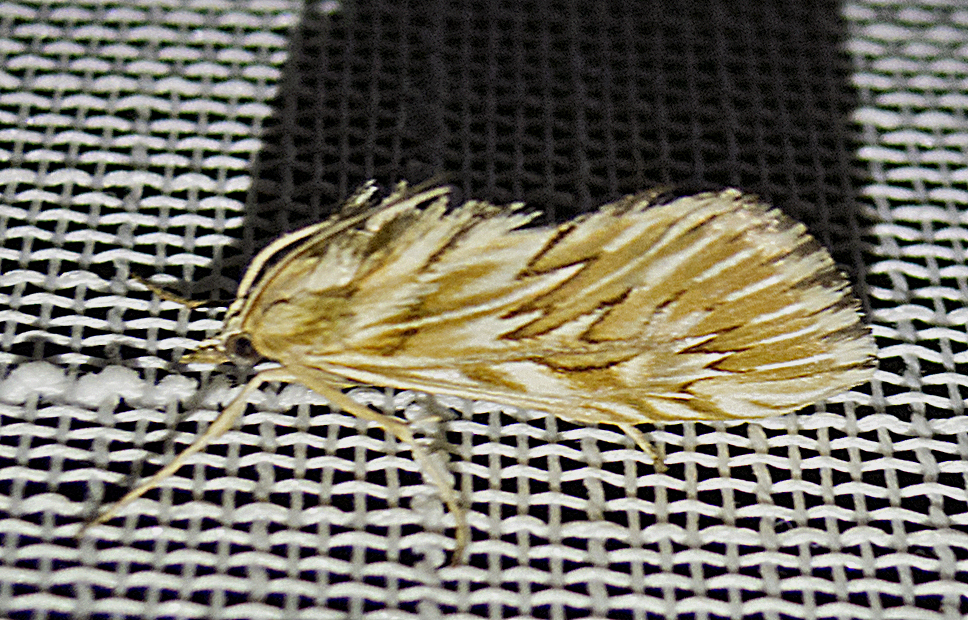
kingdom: Animalia
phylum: Arthropoda
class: Insecta
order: Lepidoptera
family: Crambidae
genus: Cynaeda
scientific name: Cynaeda dentalis
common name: Starry pearl
